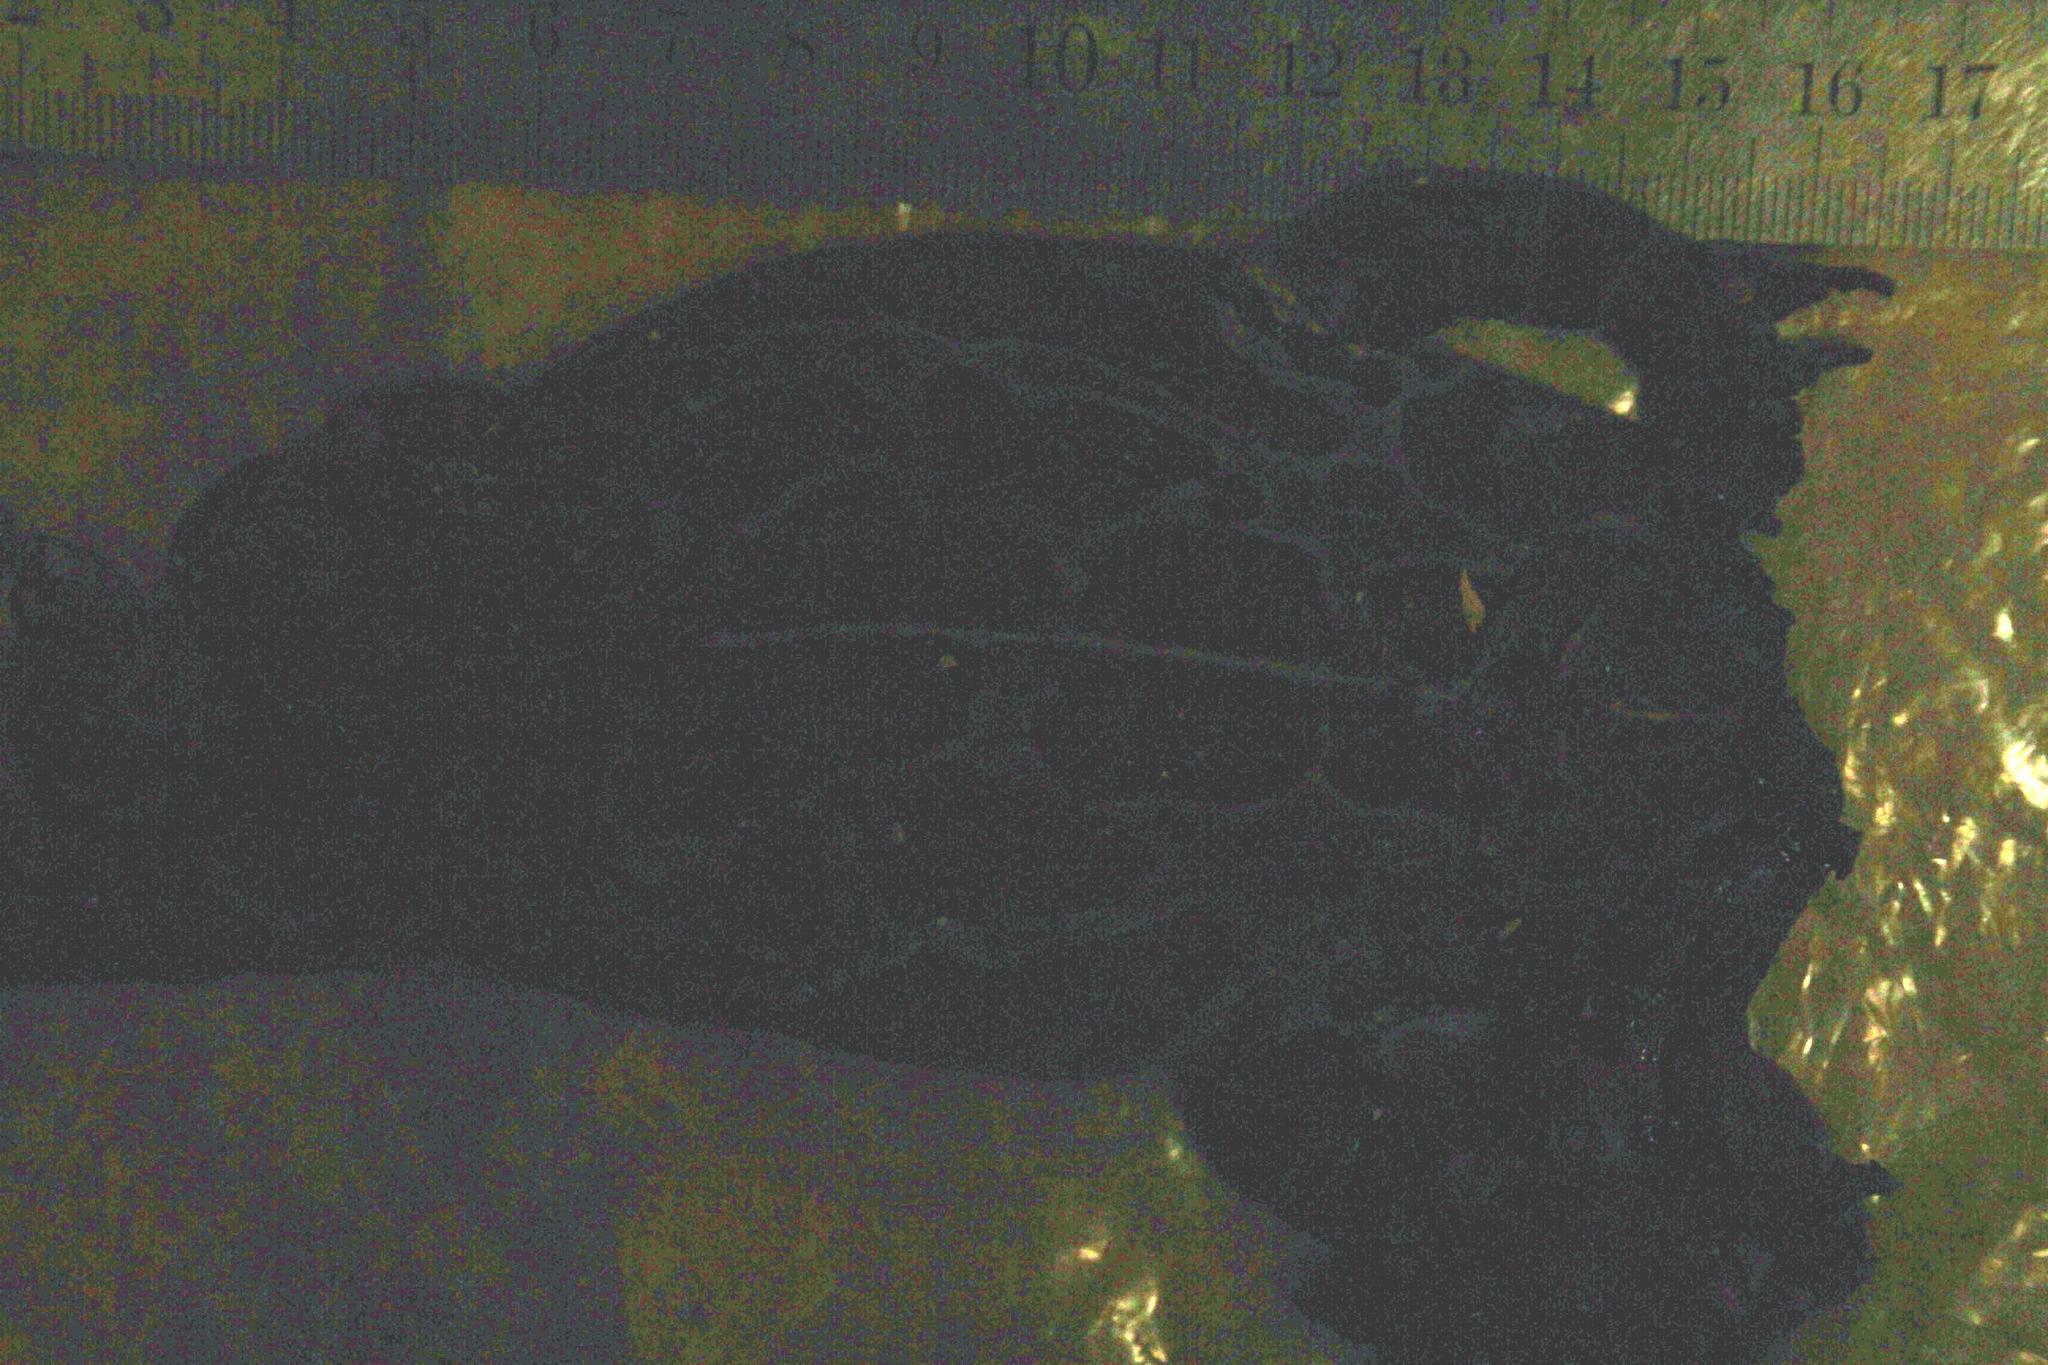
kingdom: Animalia
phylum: Chordata
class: Amphibia
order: Anura
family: Bufonidae
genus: Sclerophrys
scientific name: Sclerophrys pantherina
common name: Panther toad
